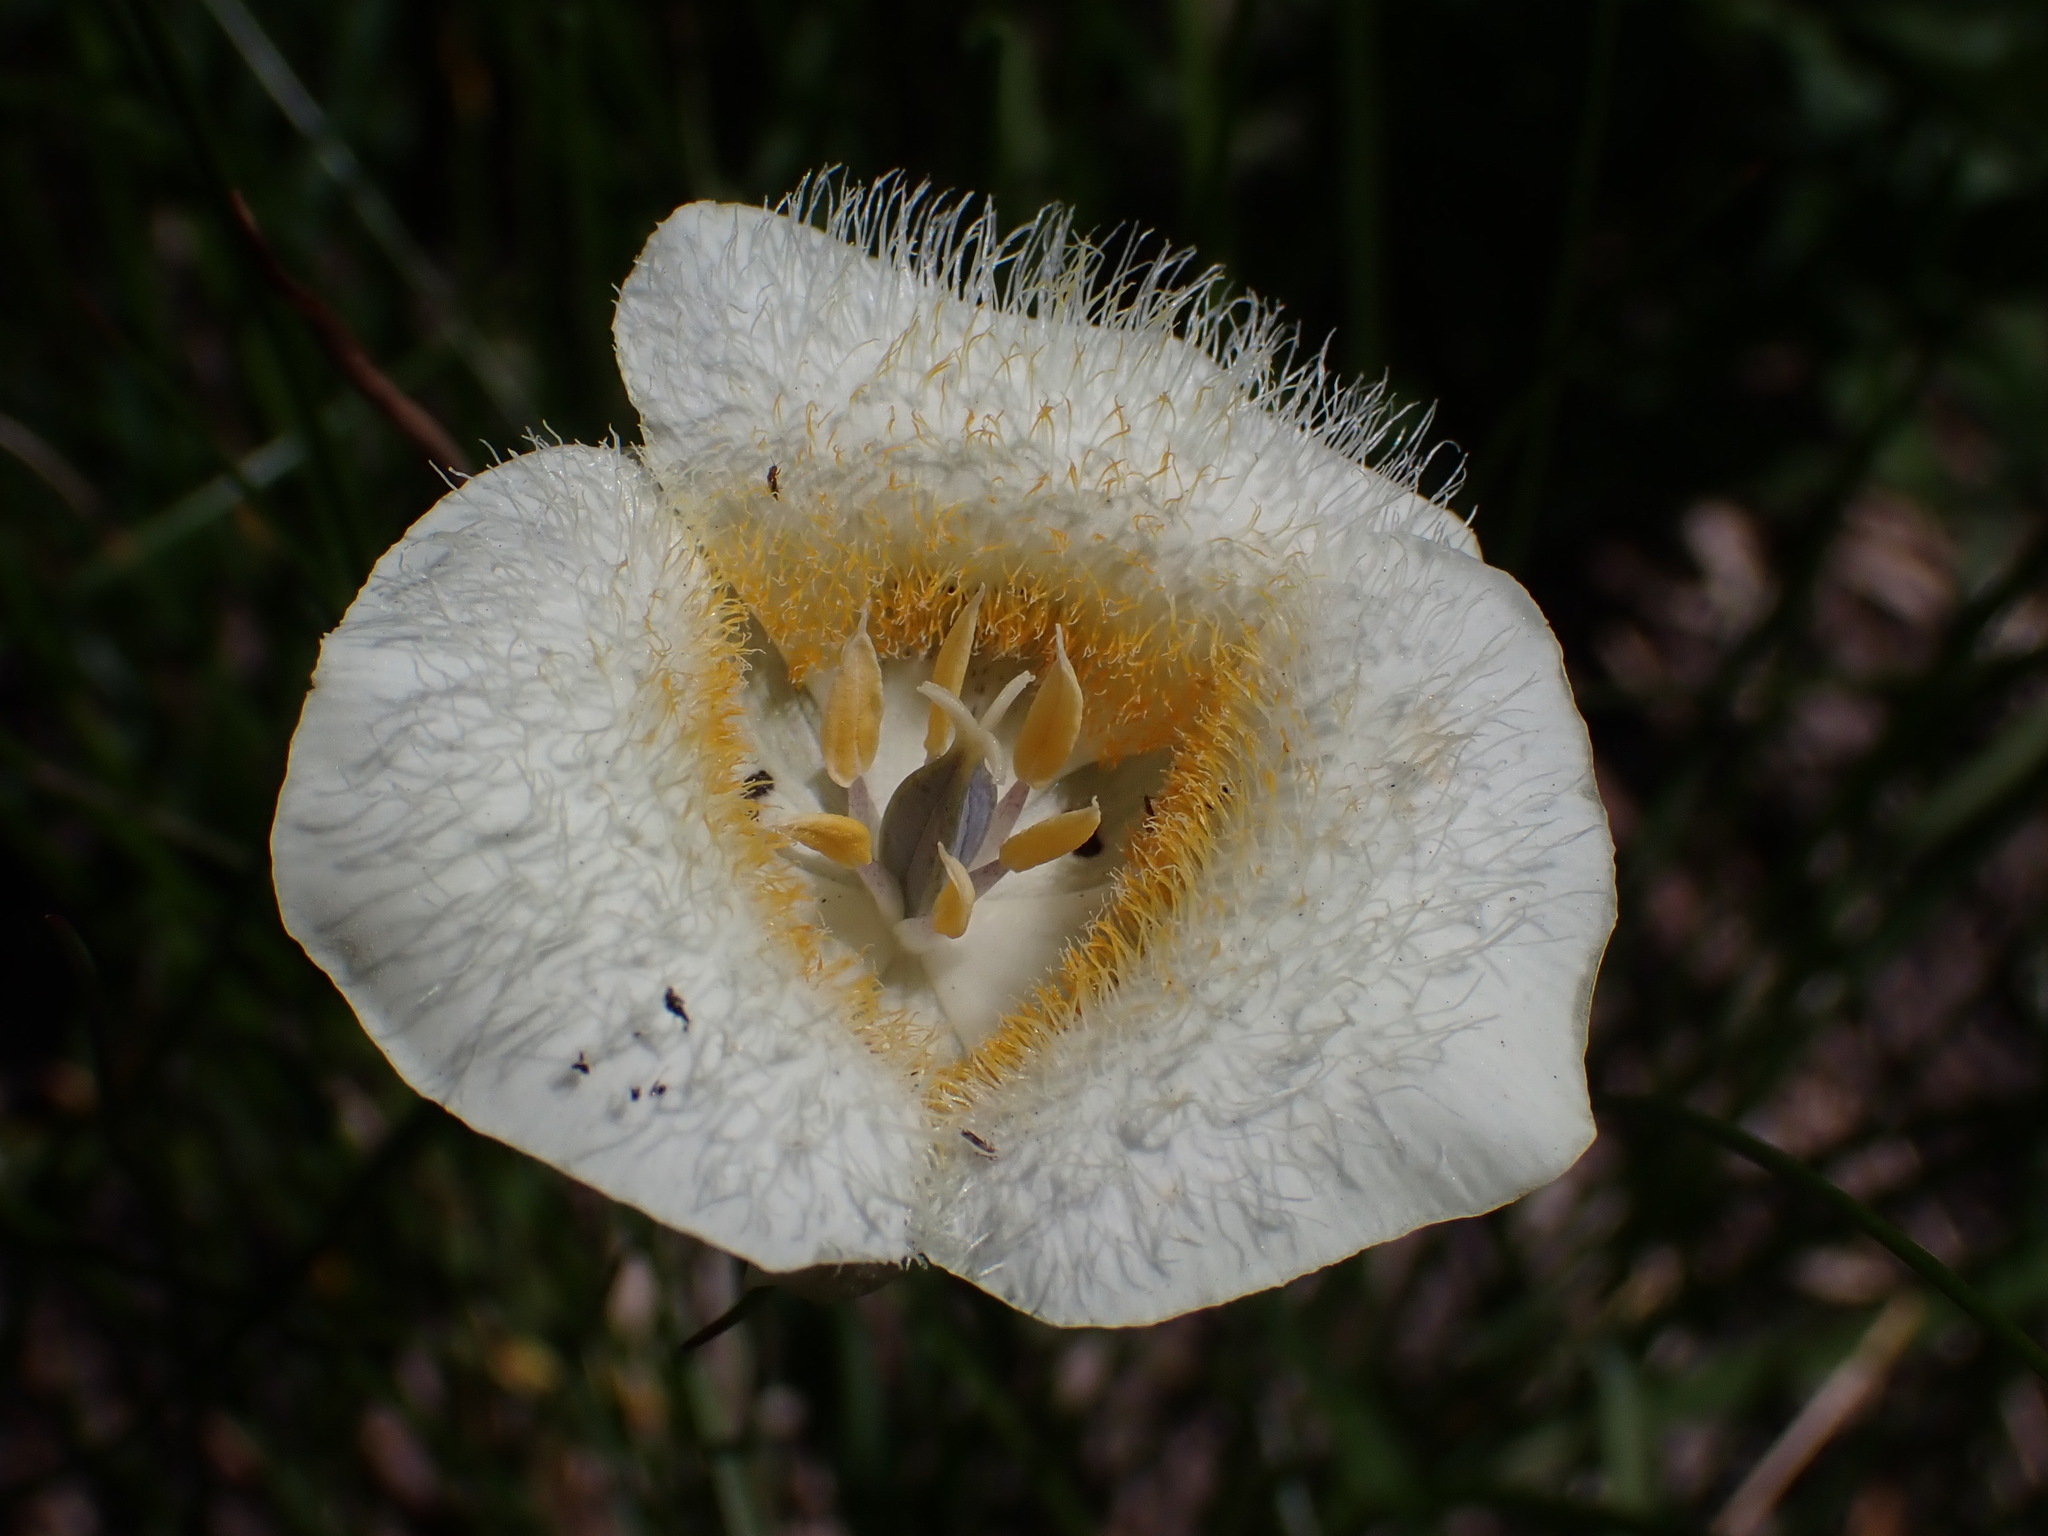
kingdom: Plantae
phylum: Tracheophyta
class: Liliopsida
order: Liliales
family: Liliaceae
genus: Calochortus
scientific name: Calochortus subalpinus
